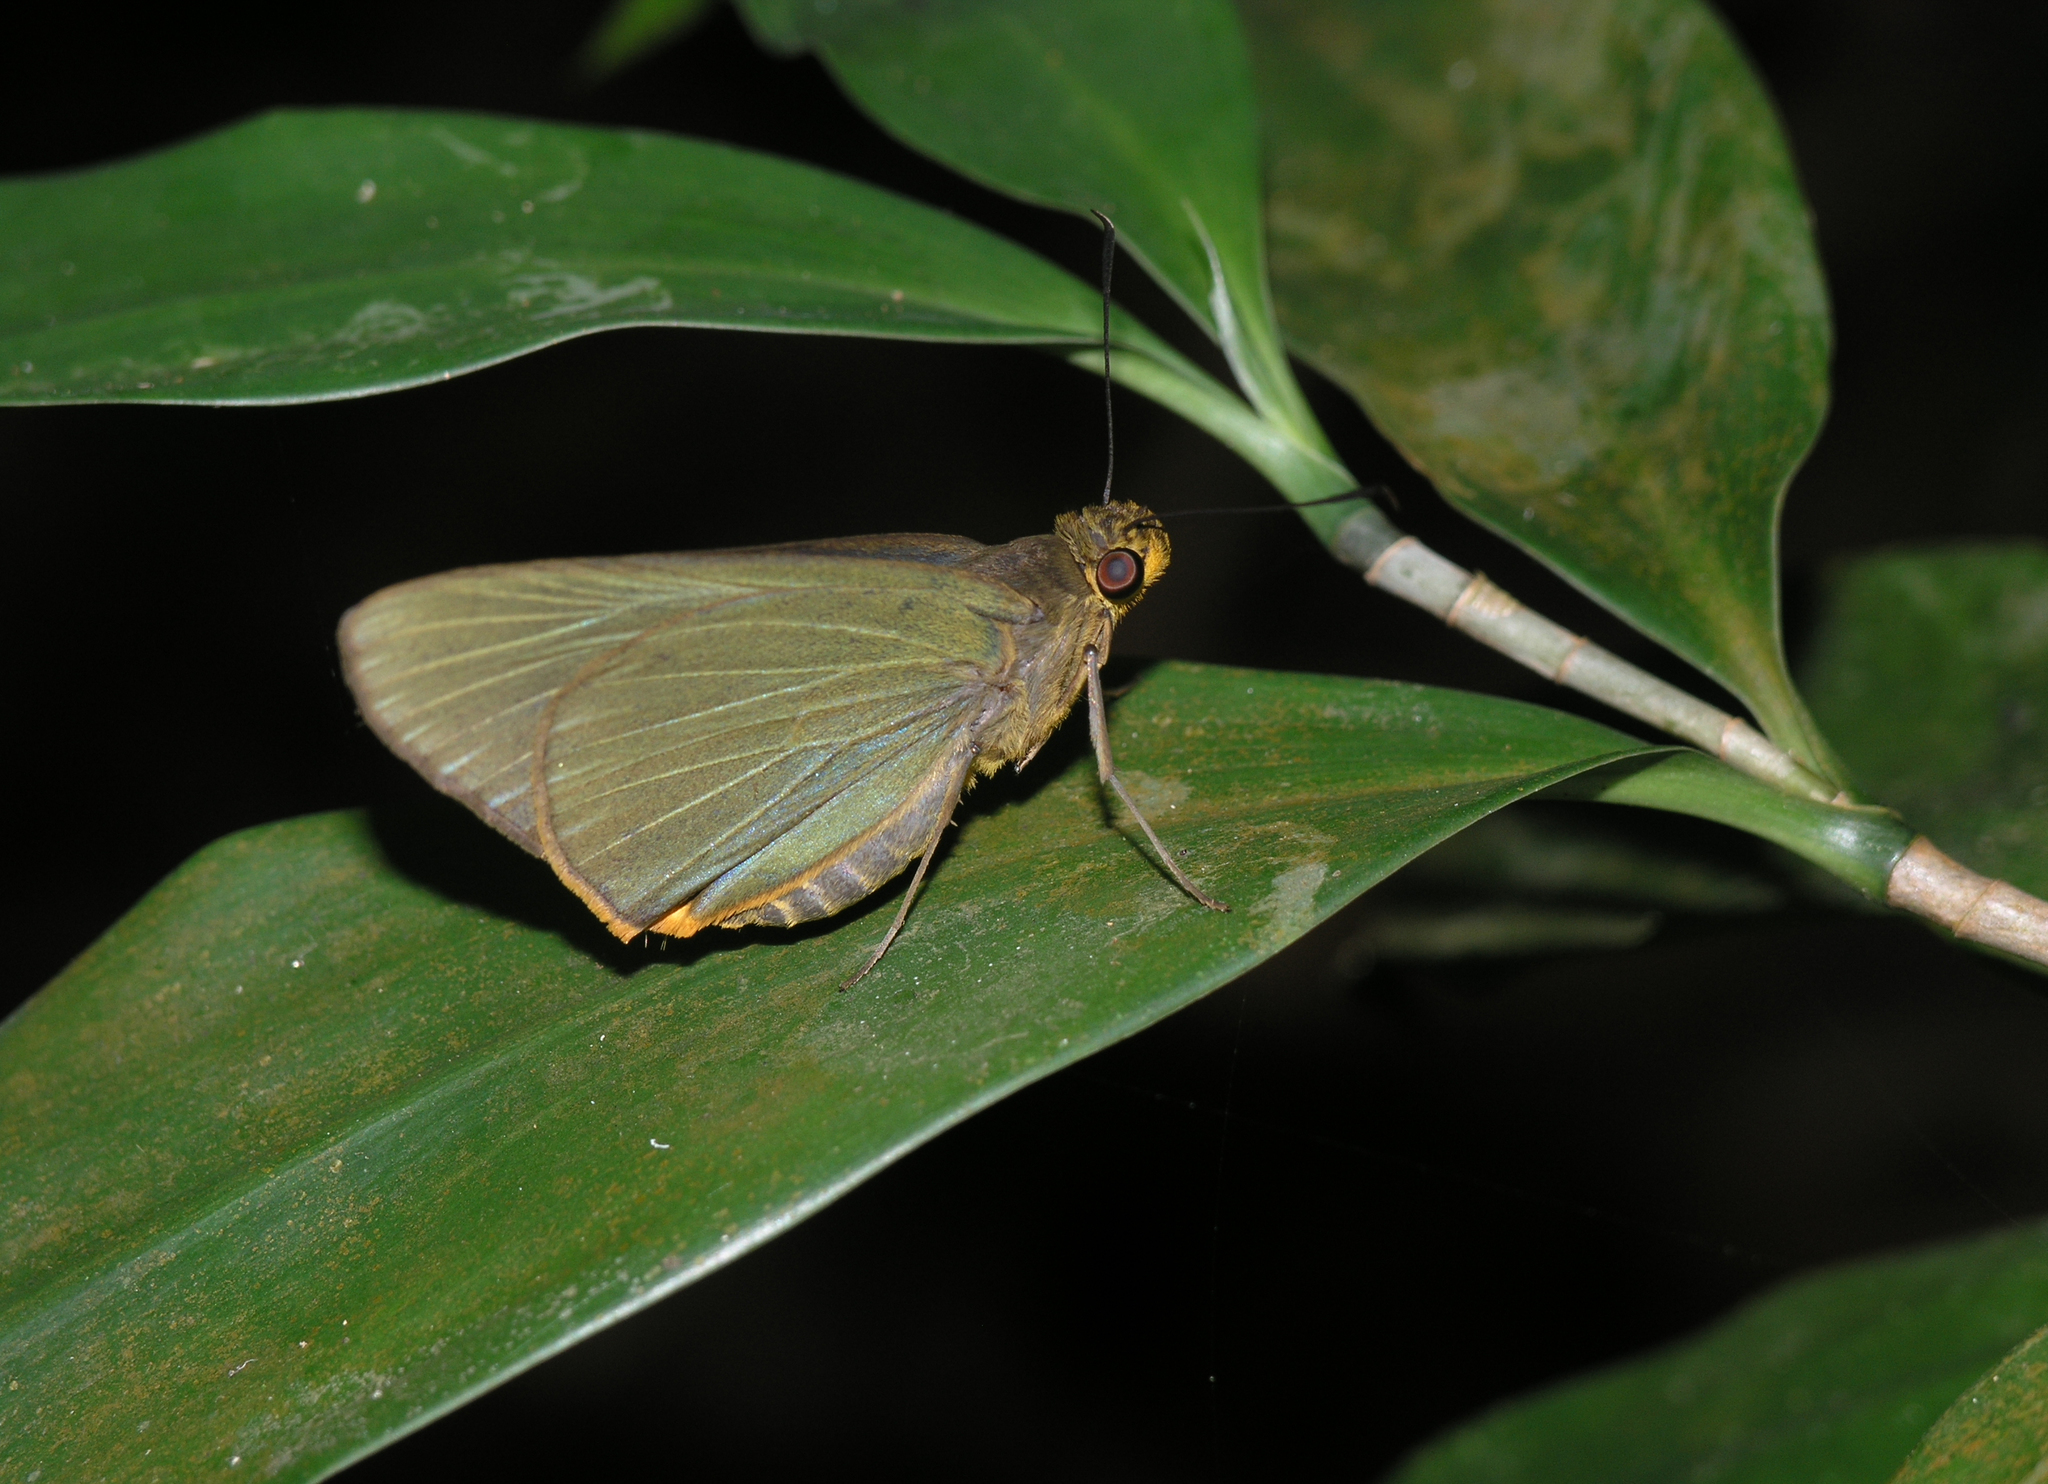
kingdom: Animalia
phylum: Arthropoda
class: Insecta
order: Lepidoptera
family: Hesperiidae
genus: Pirdana
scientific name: Pirdana distanti
